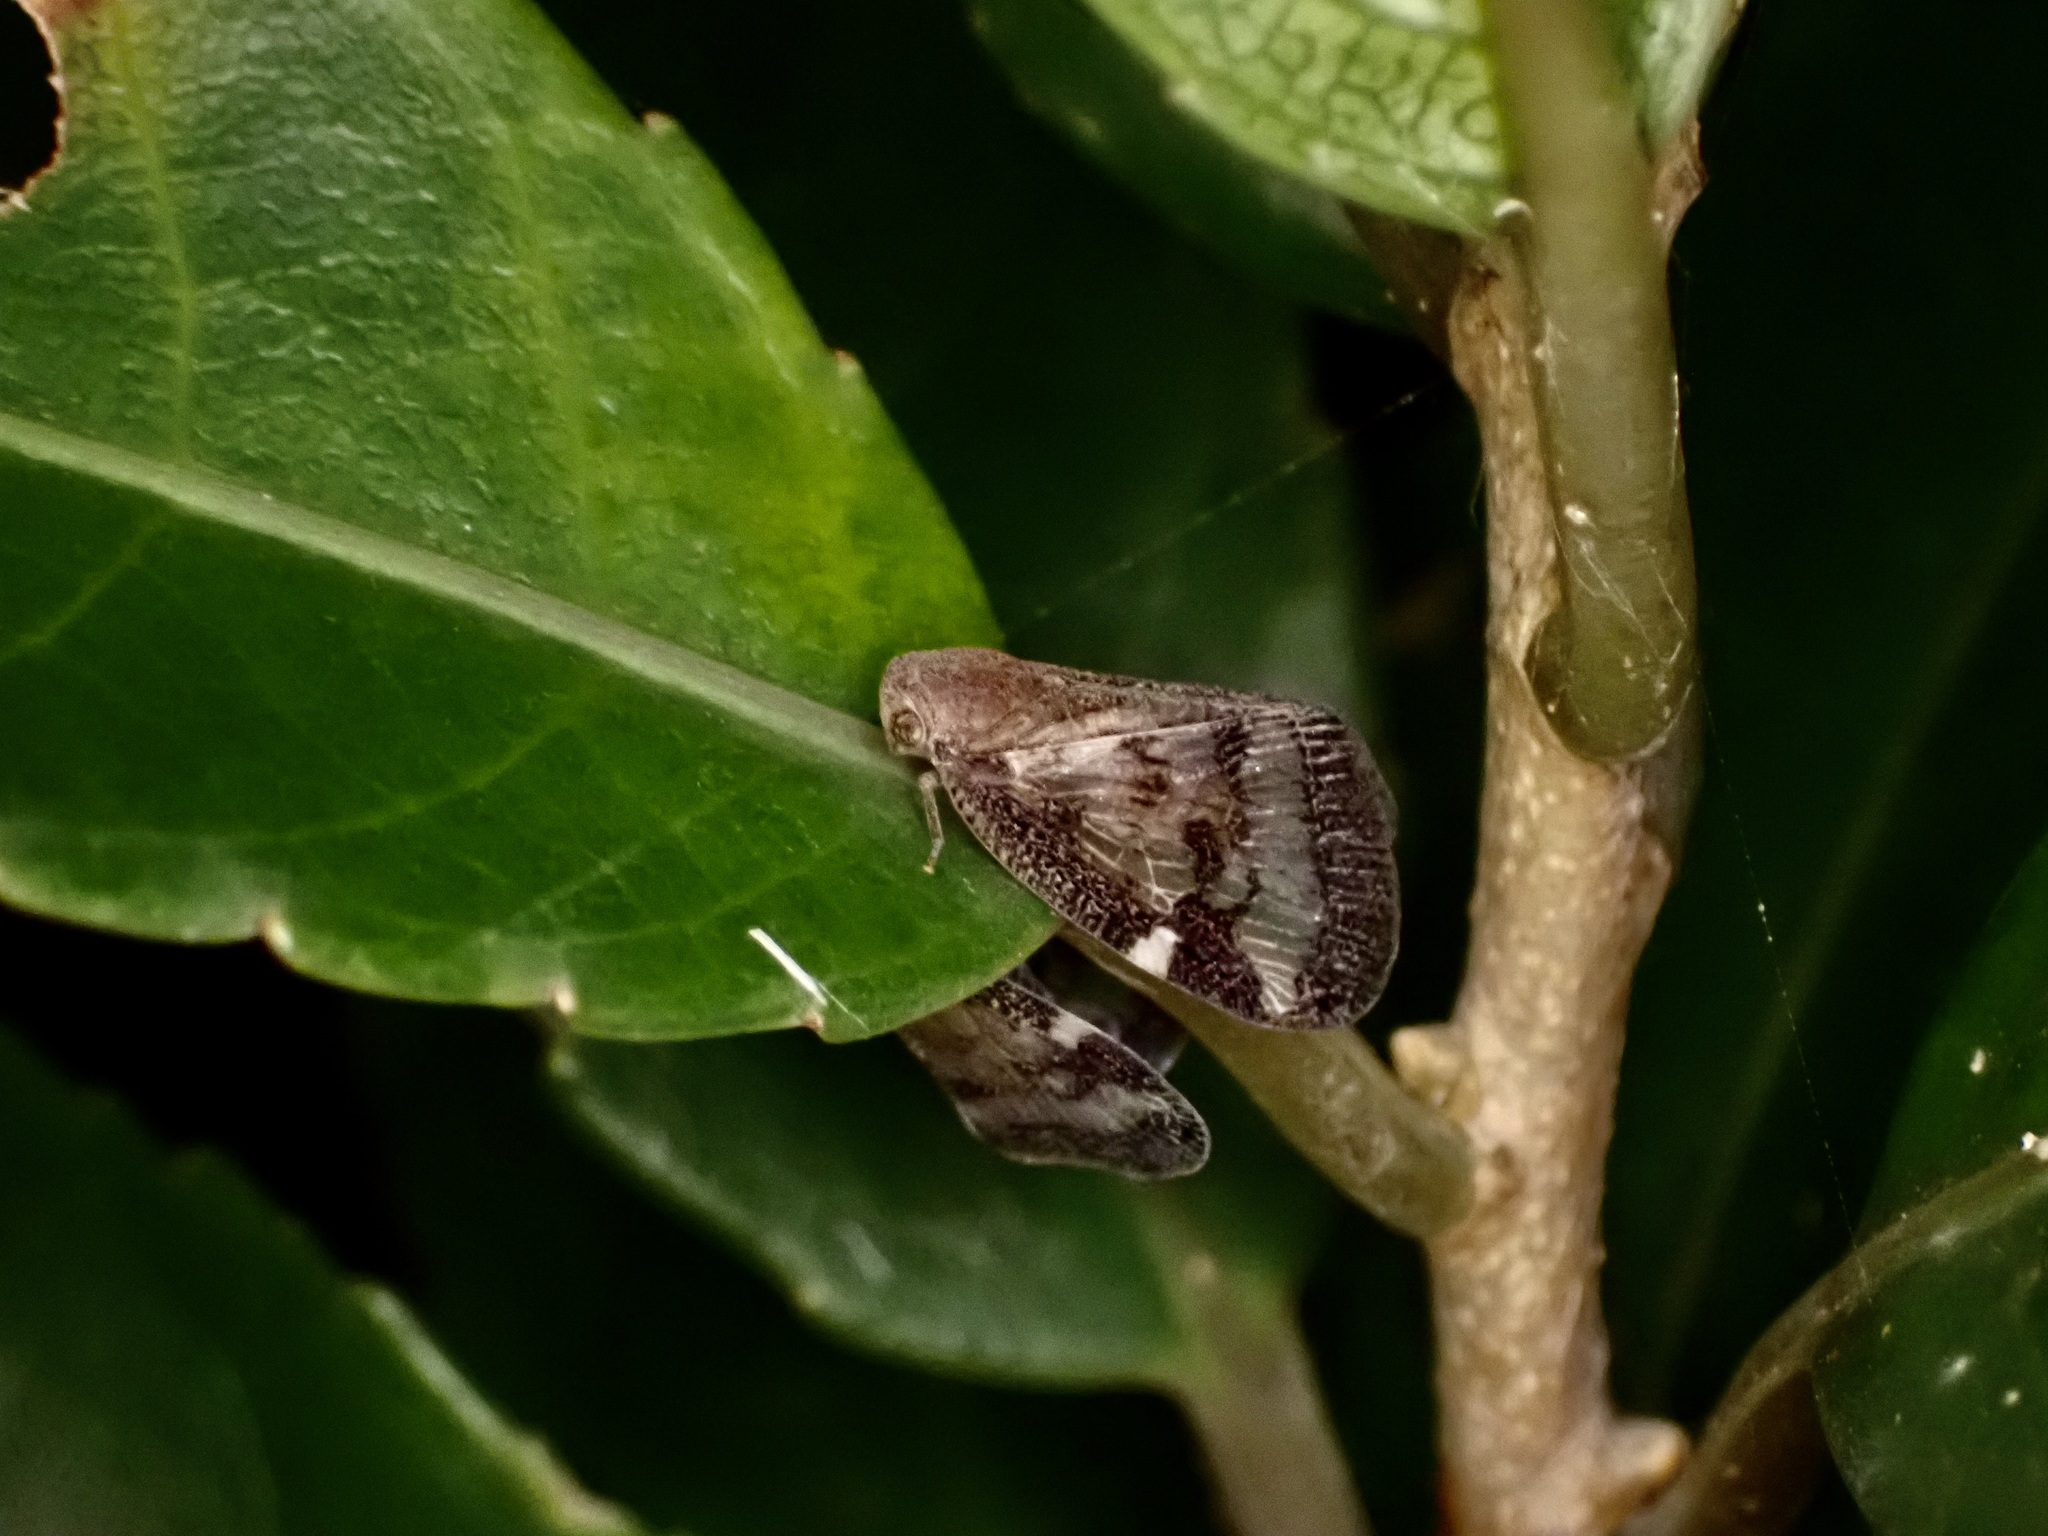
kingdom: Animalia
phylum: Arthropoda
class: Insecta
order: Hemiptera
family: Ricaniidae
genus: Scolypopa
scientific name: Scolypopa australis
